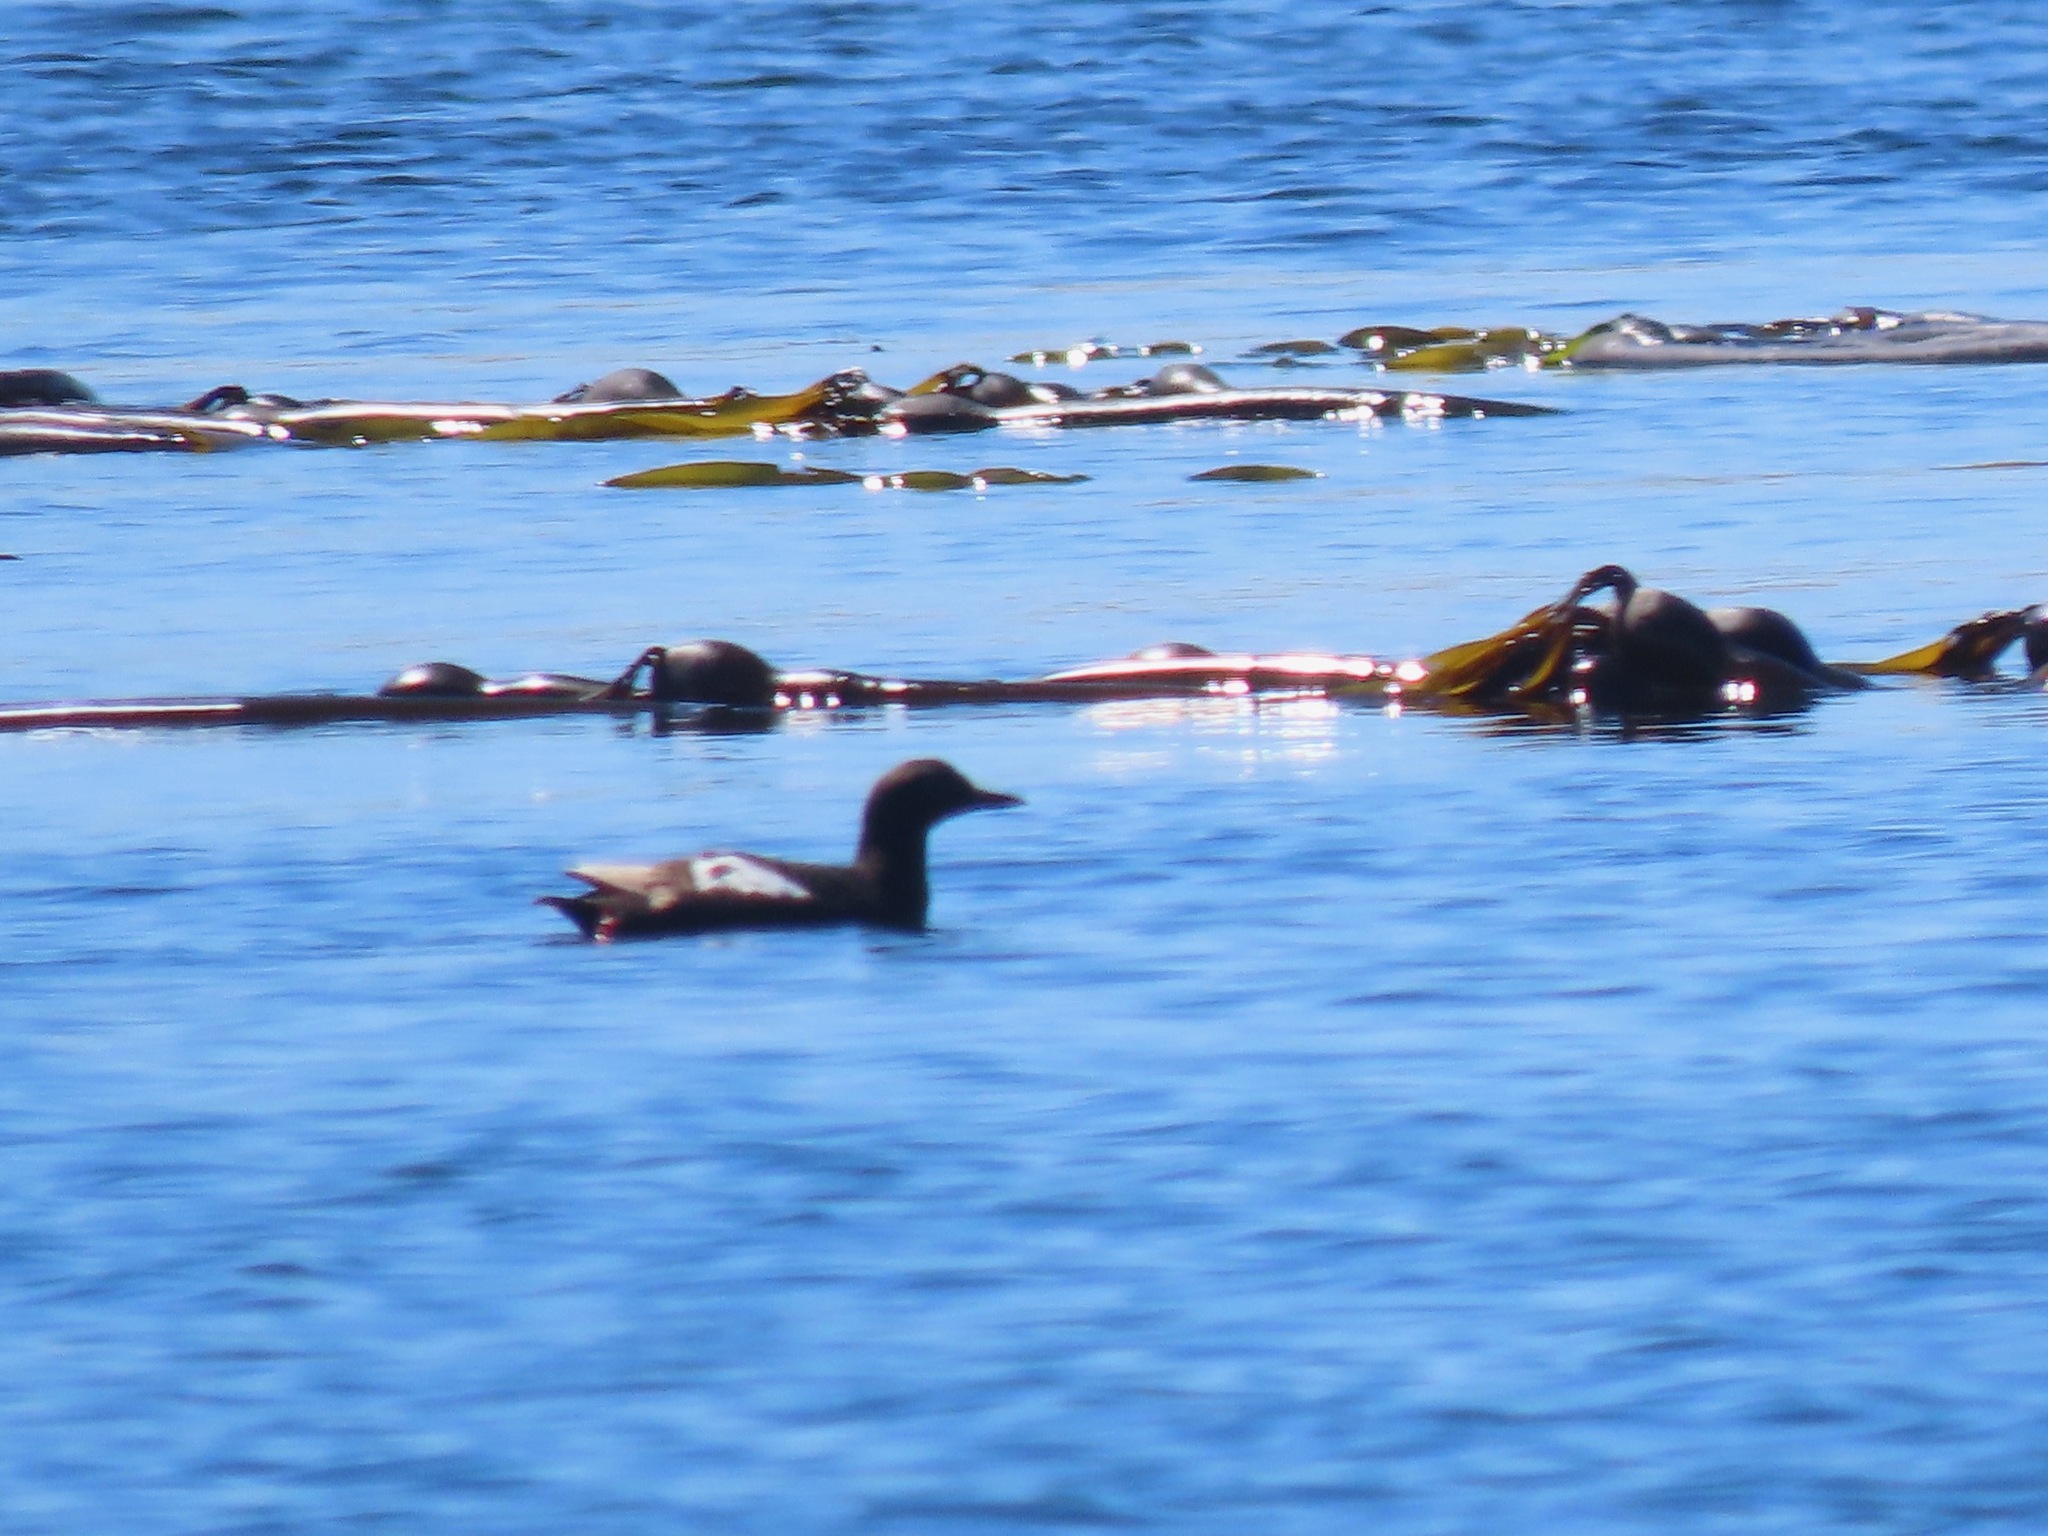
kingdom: Animalia
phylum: Chordata
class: Aves
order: Charadriiformes
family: Alcidae
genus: Cepphus
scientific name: Cepphus columba
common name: Pigeon guillemot
